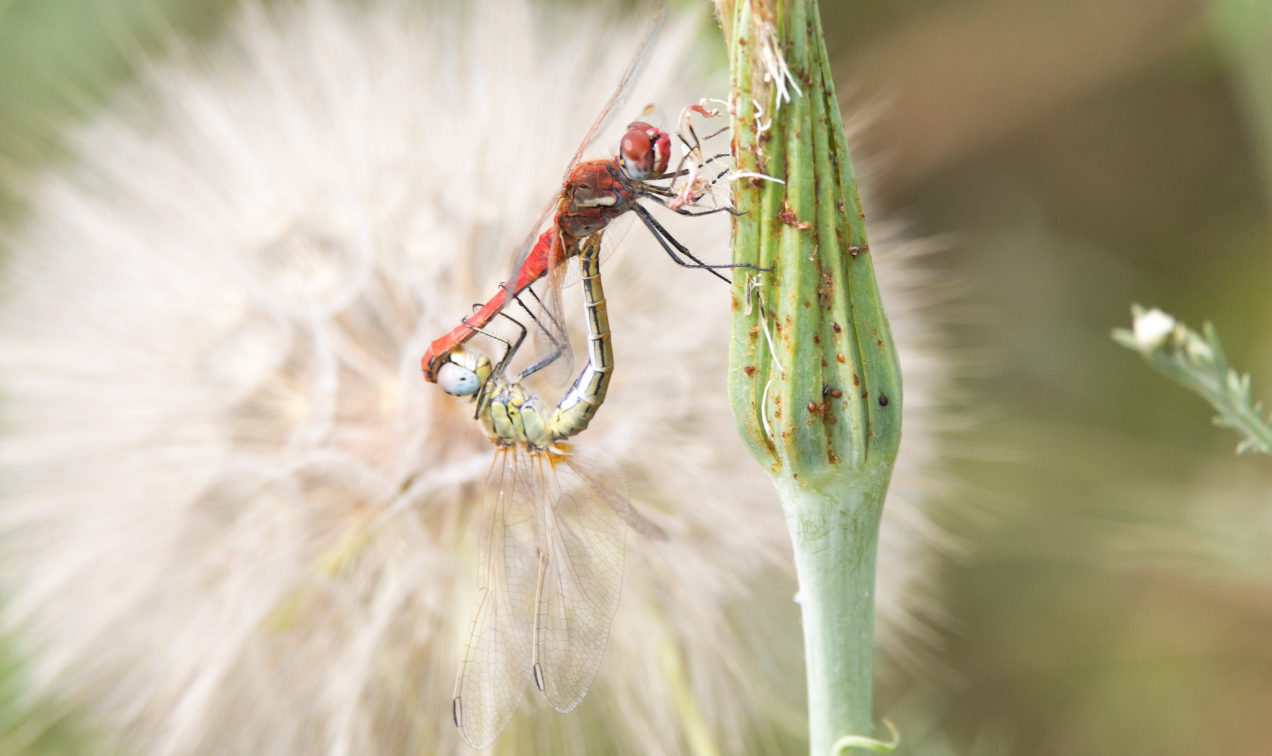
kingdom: Animalia
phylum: Arthropoda
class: Insecta
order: Odonata
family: Libellulidae
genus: Sympetrum
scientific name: Sympetrum fonscolombii
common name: Red-veined darter
